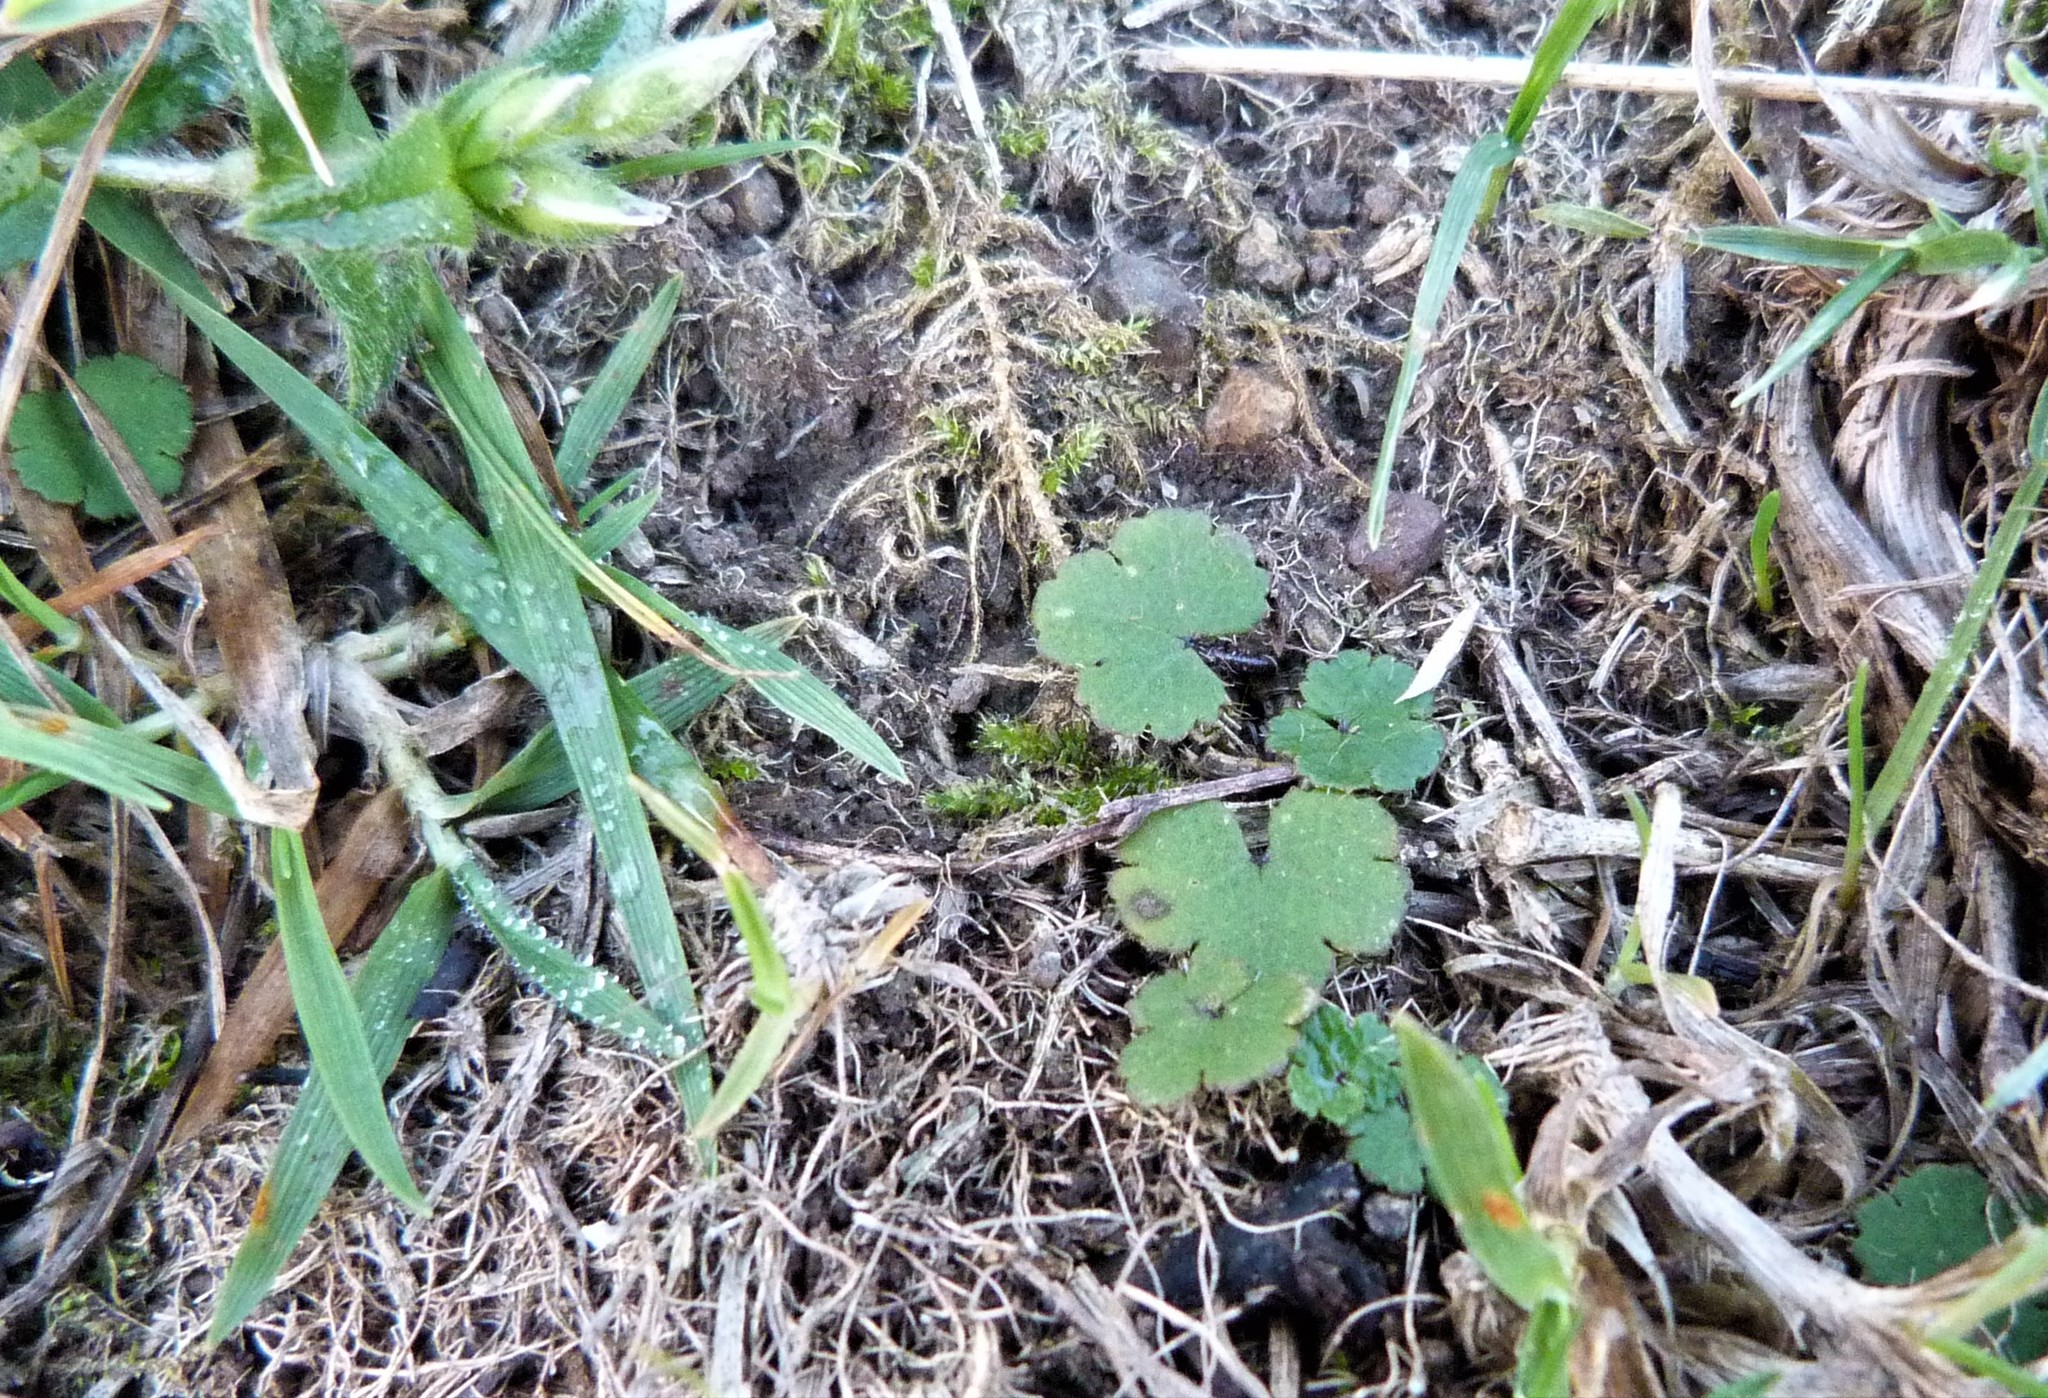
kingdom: Plantae
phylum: Tracheophyta
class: Magnoliopsida
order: Apiales
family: Araliaceae
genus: Hydrocotyle
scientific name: Hydrocotyle moschata
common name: Hairy pennywort
